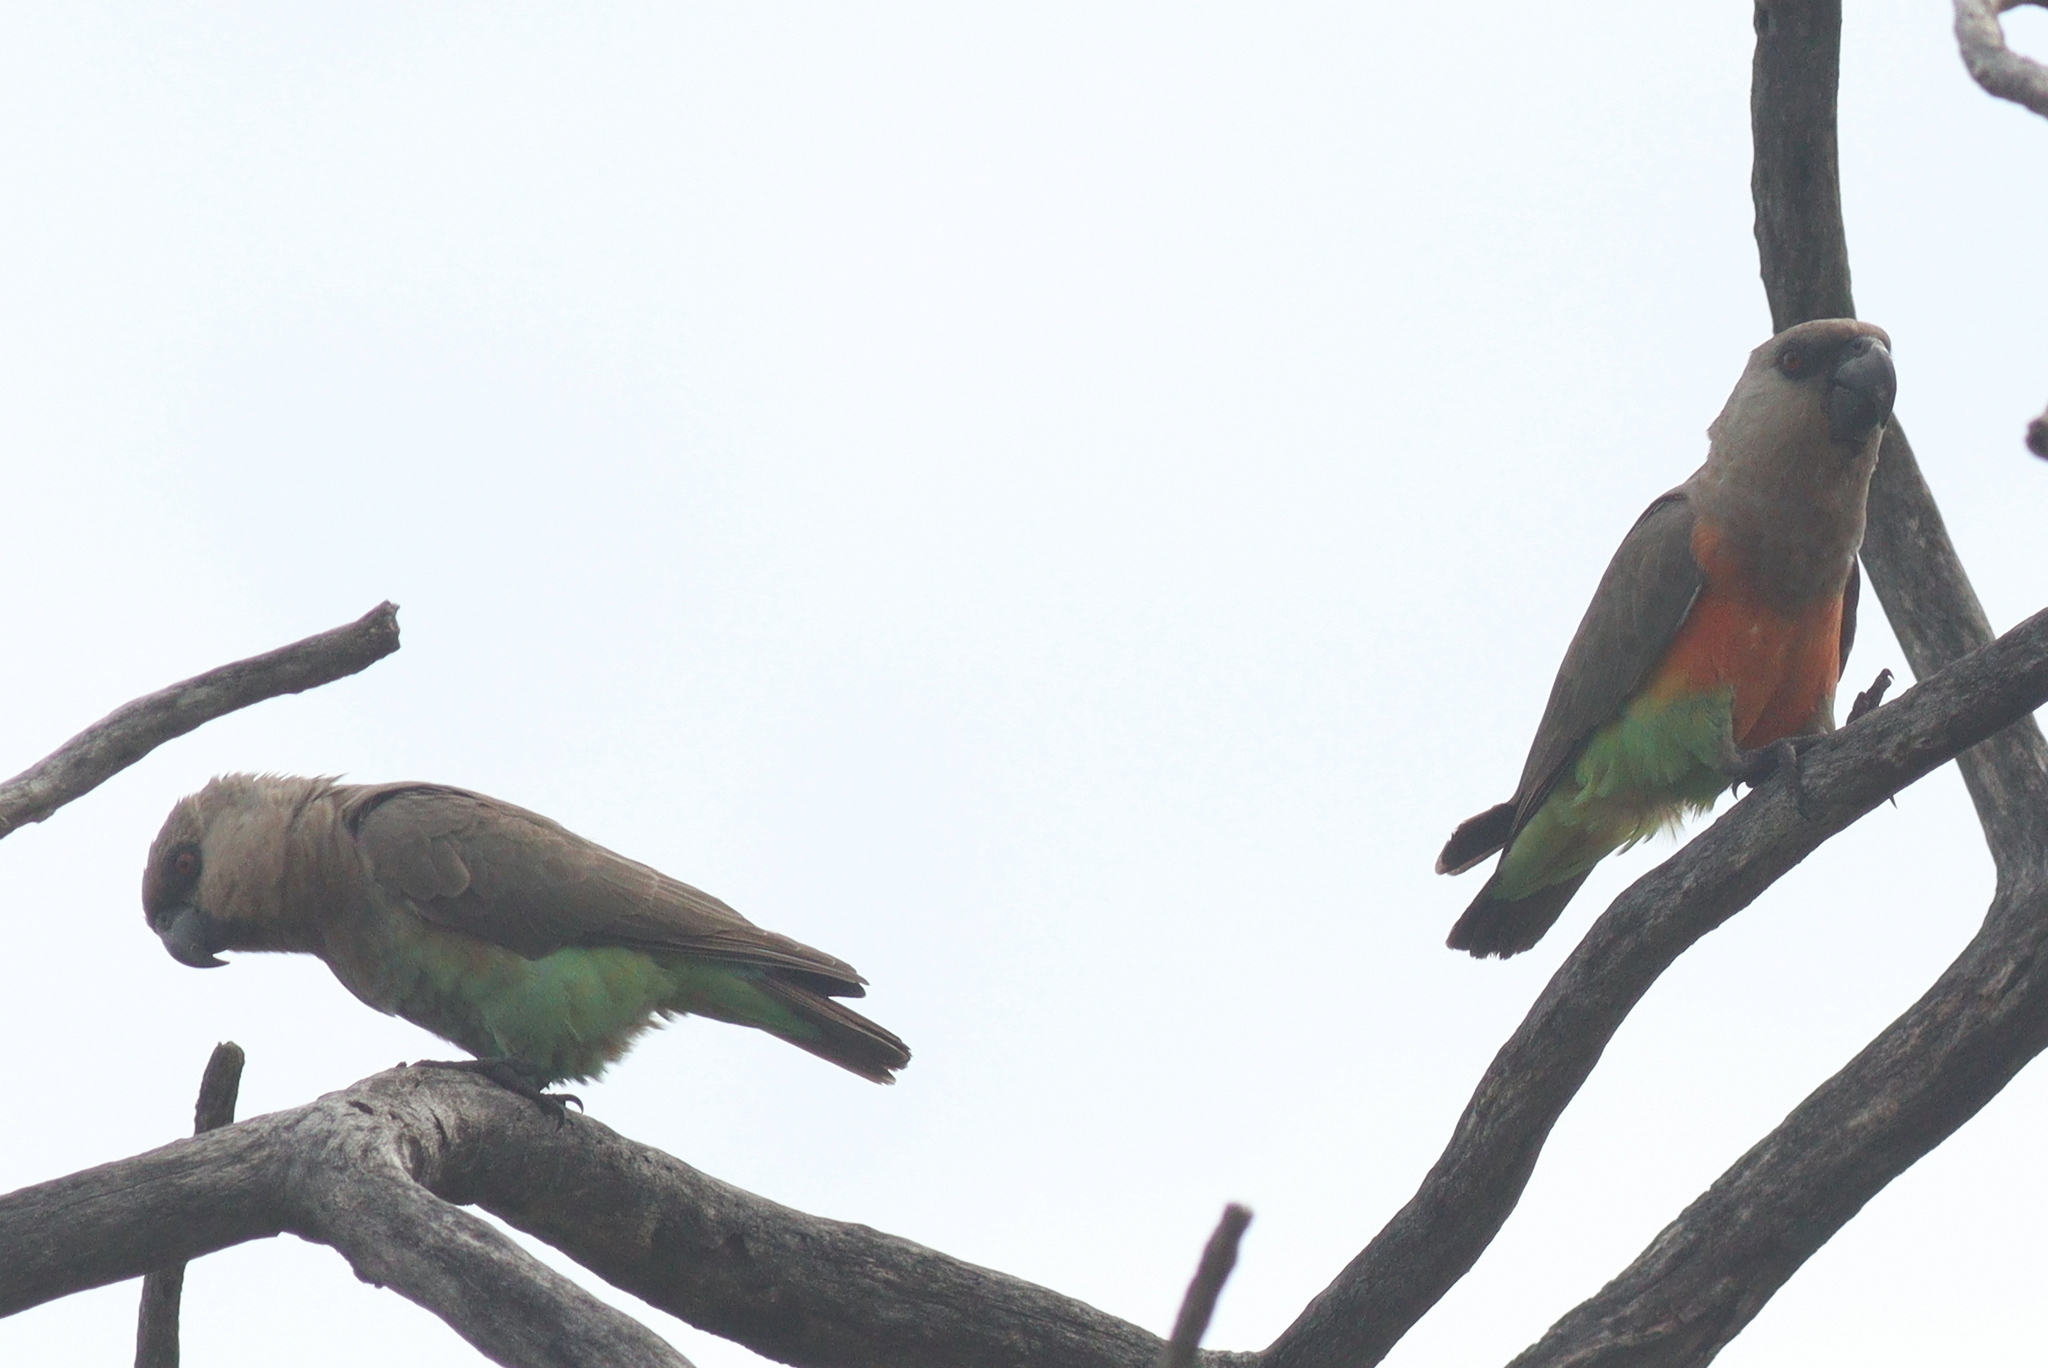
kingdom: Animalia
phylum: Chordata
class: Aves
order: Psittaciformes
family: Psittacidae
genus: Poicephalus
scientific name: Poicephalus rufiventris
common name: Red-bellied parrot
